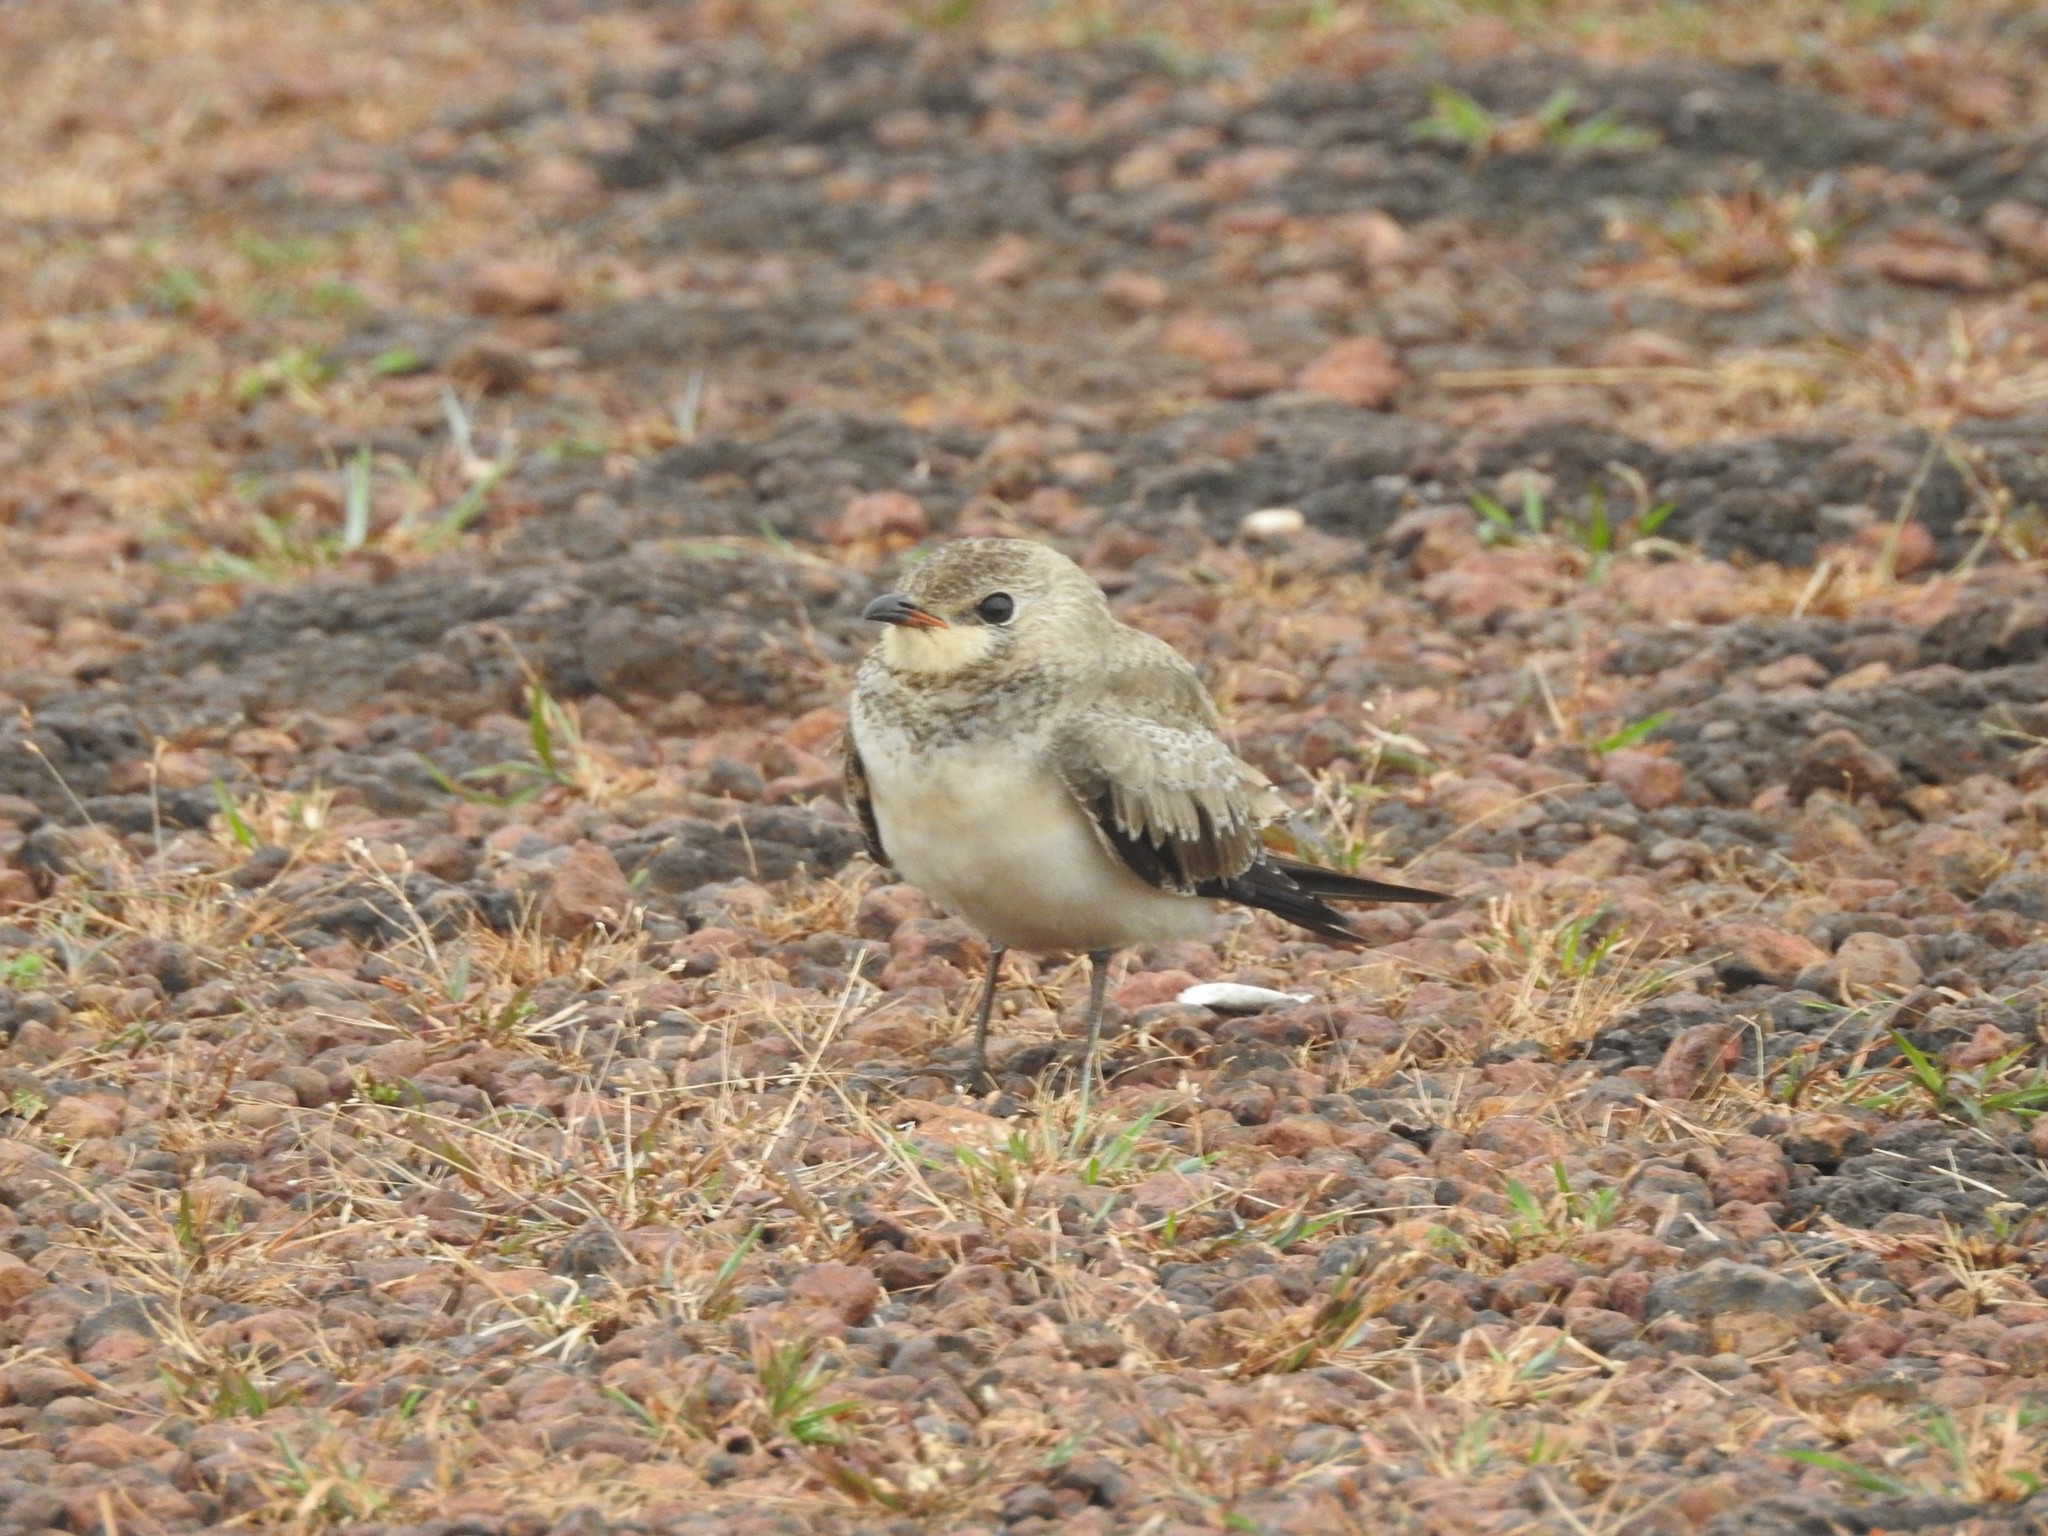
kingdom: Animalia
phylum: Chordata
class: Aves
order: Charadriiformes
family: Glareolidae
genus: Glareola
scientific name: Glareola lactea
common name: Small pratincole
